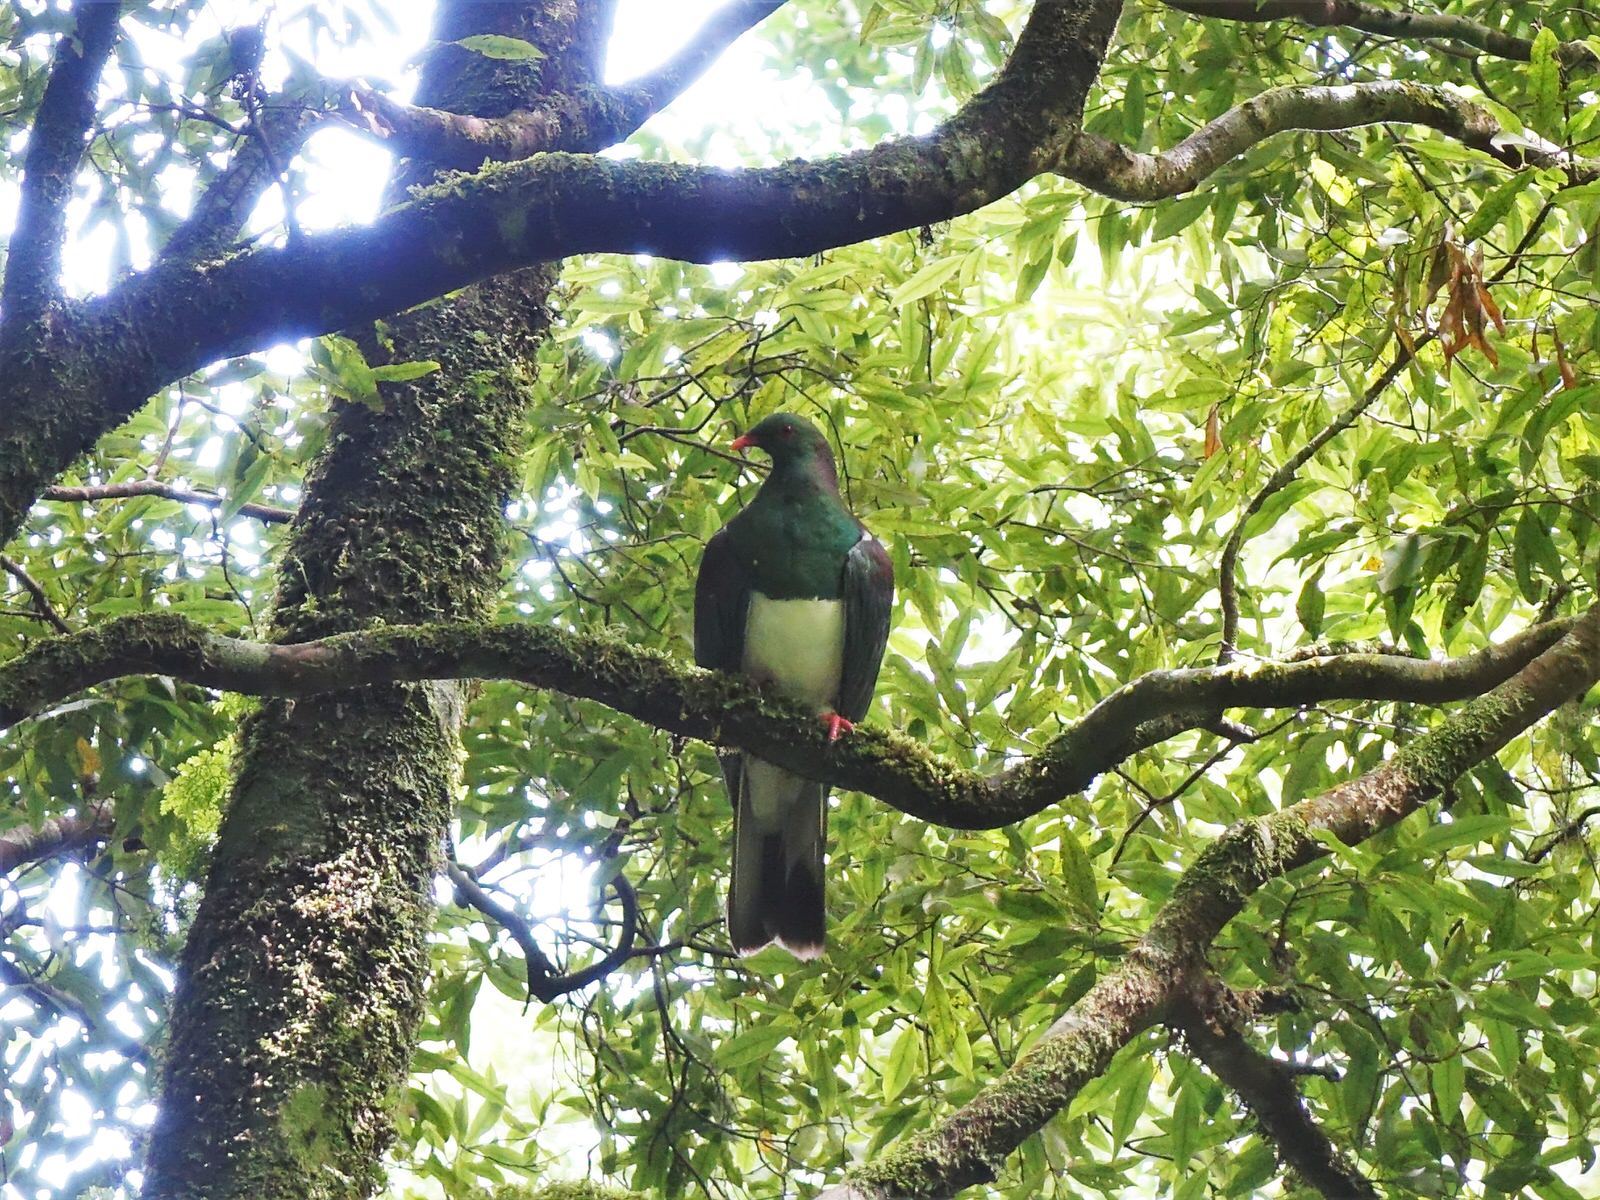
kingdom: Animalia
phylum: Chordata
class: Aves
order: Columbiformes
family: Columbidae
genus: Hemiphaga
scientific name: Hemiphaga novaeseelandiae
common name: New zealand pigeon
